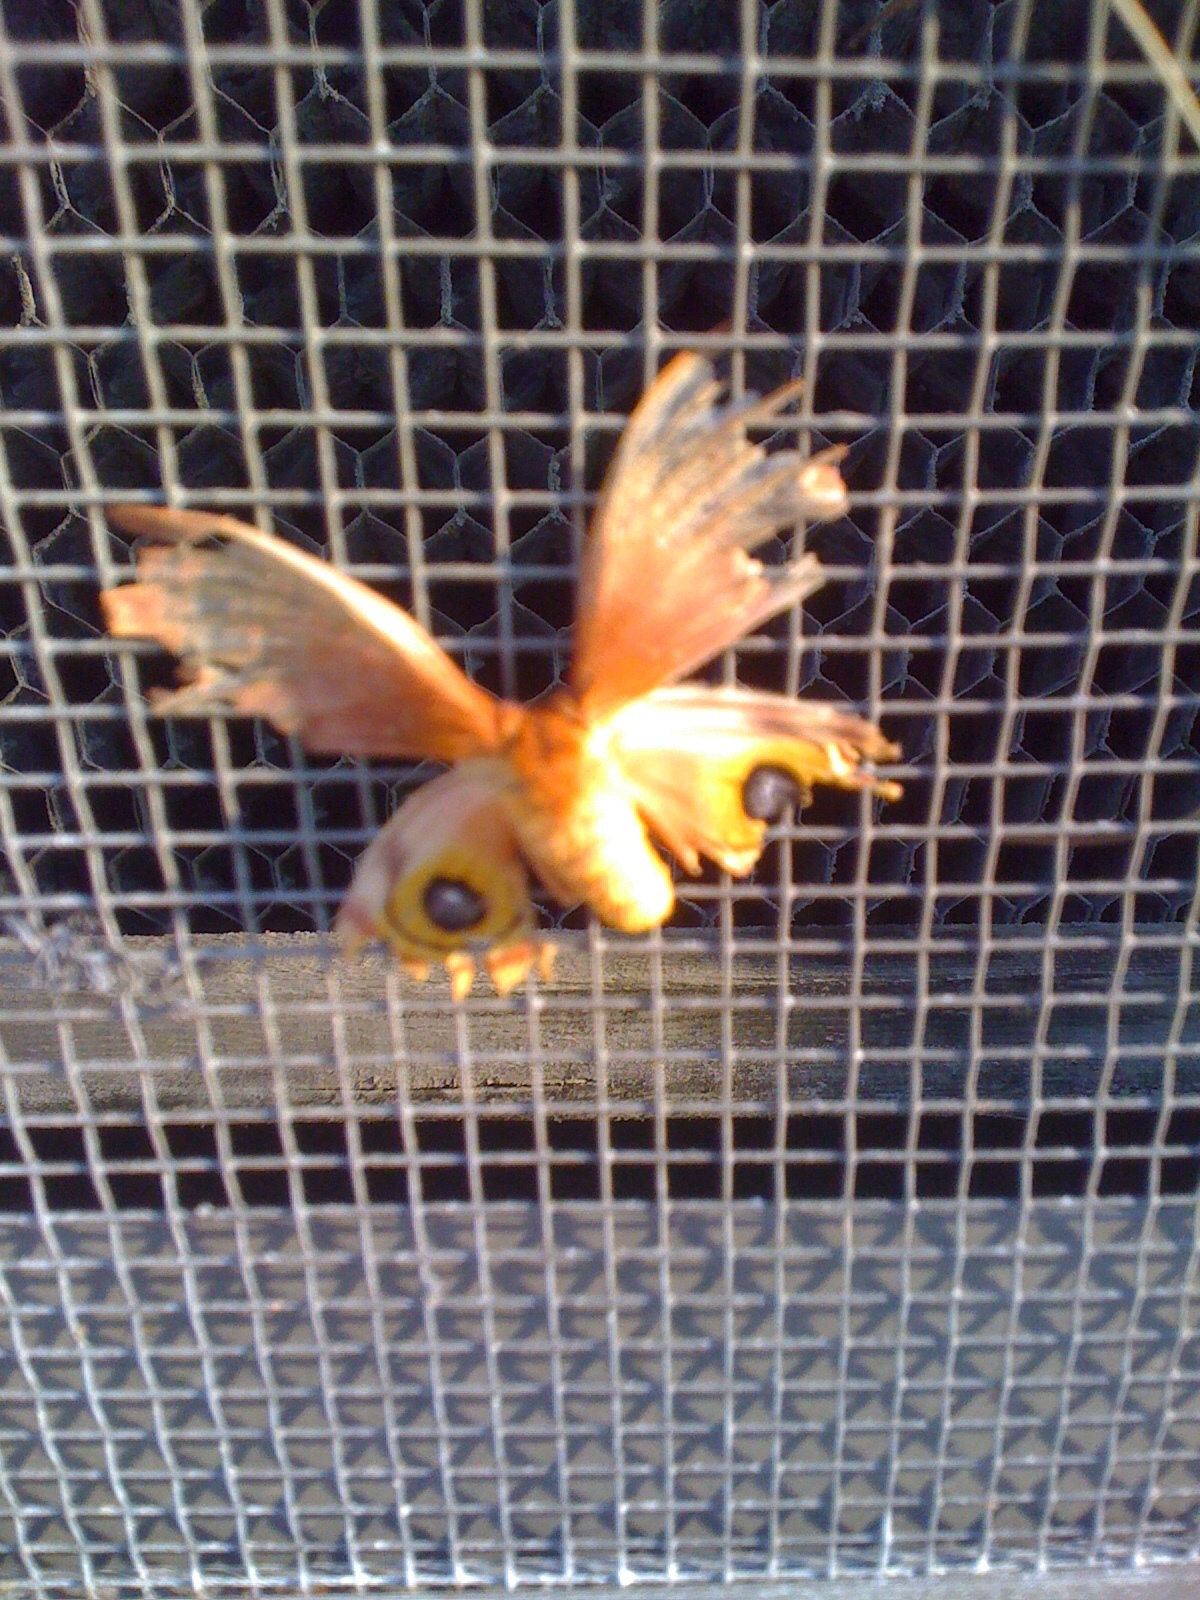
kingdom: Animalia
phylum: Arthropoda
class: Insecta
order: Lepidoptera
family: Saturniidae
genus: Automeris
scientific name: Automeris io
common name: Io moth
